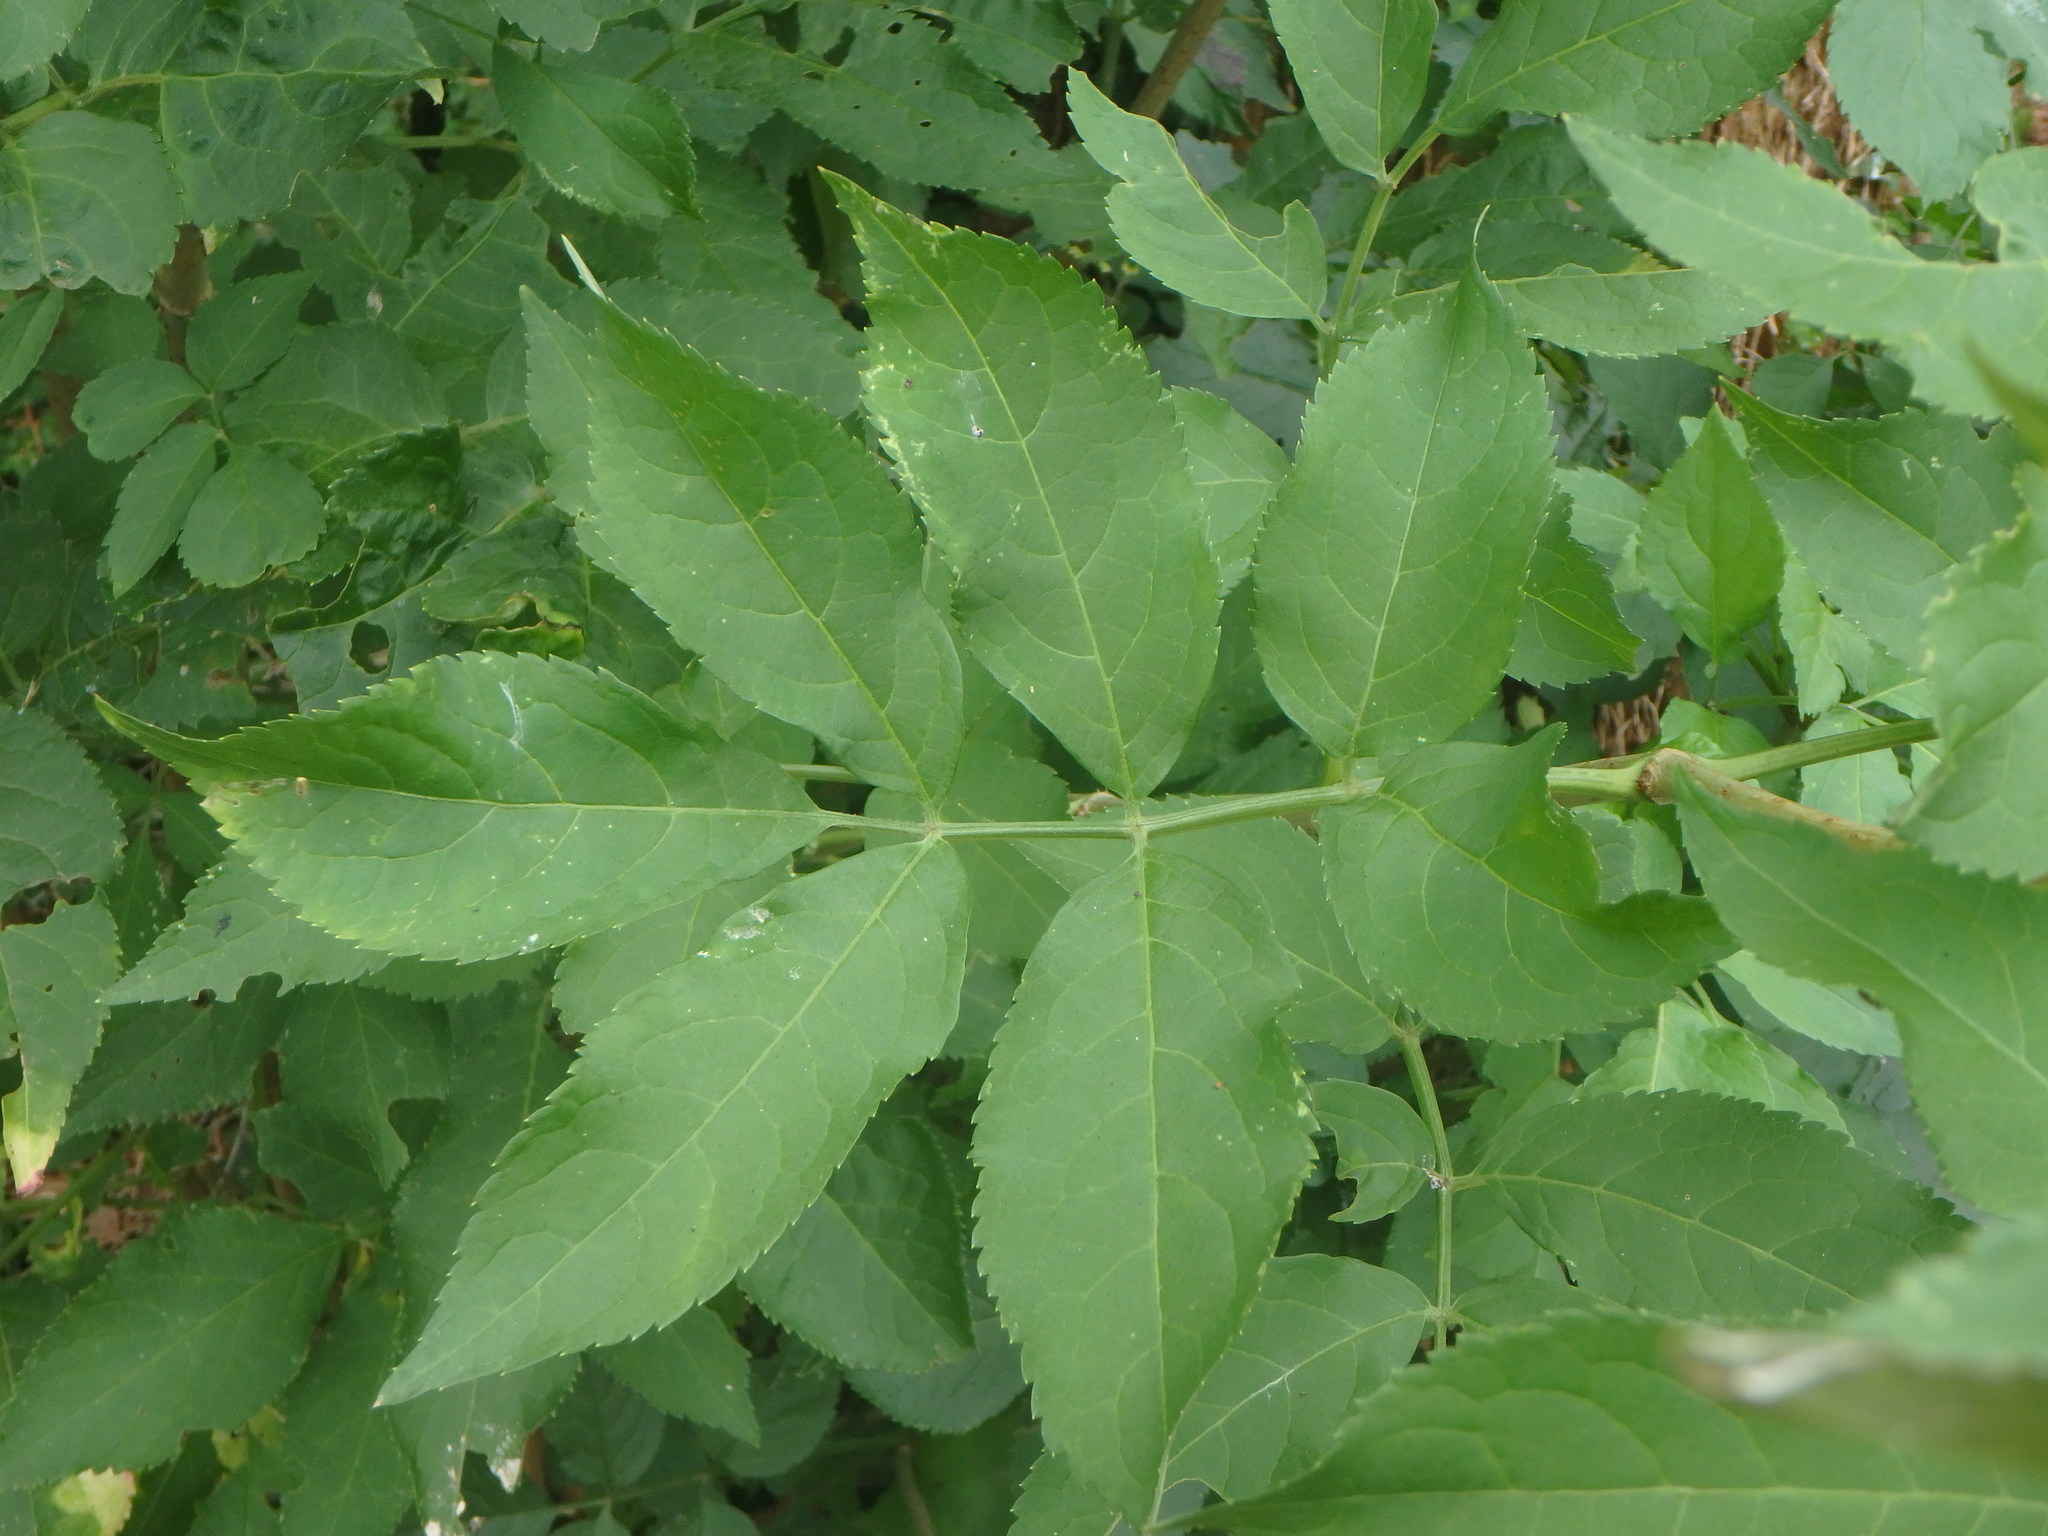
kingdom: Plantae
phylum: Tracheophyta
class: Magnoliopsida
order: Dipsacales
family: Viburnaceae
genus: Sambucus
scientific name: Sambucus nigra
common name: Elder
